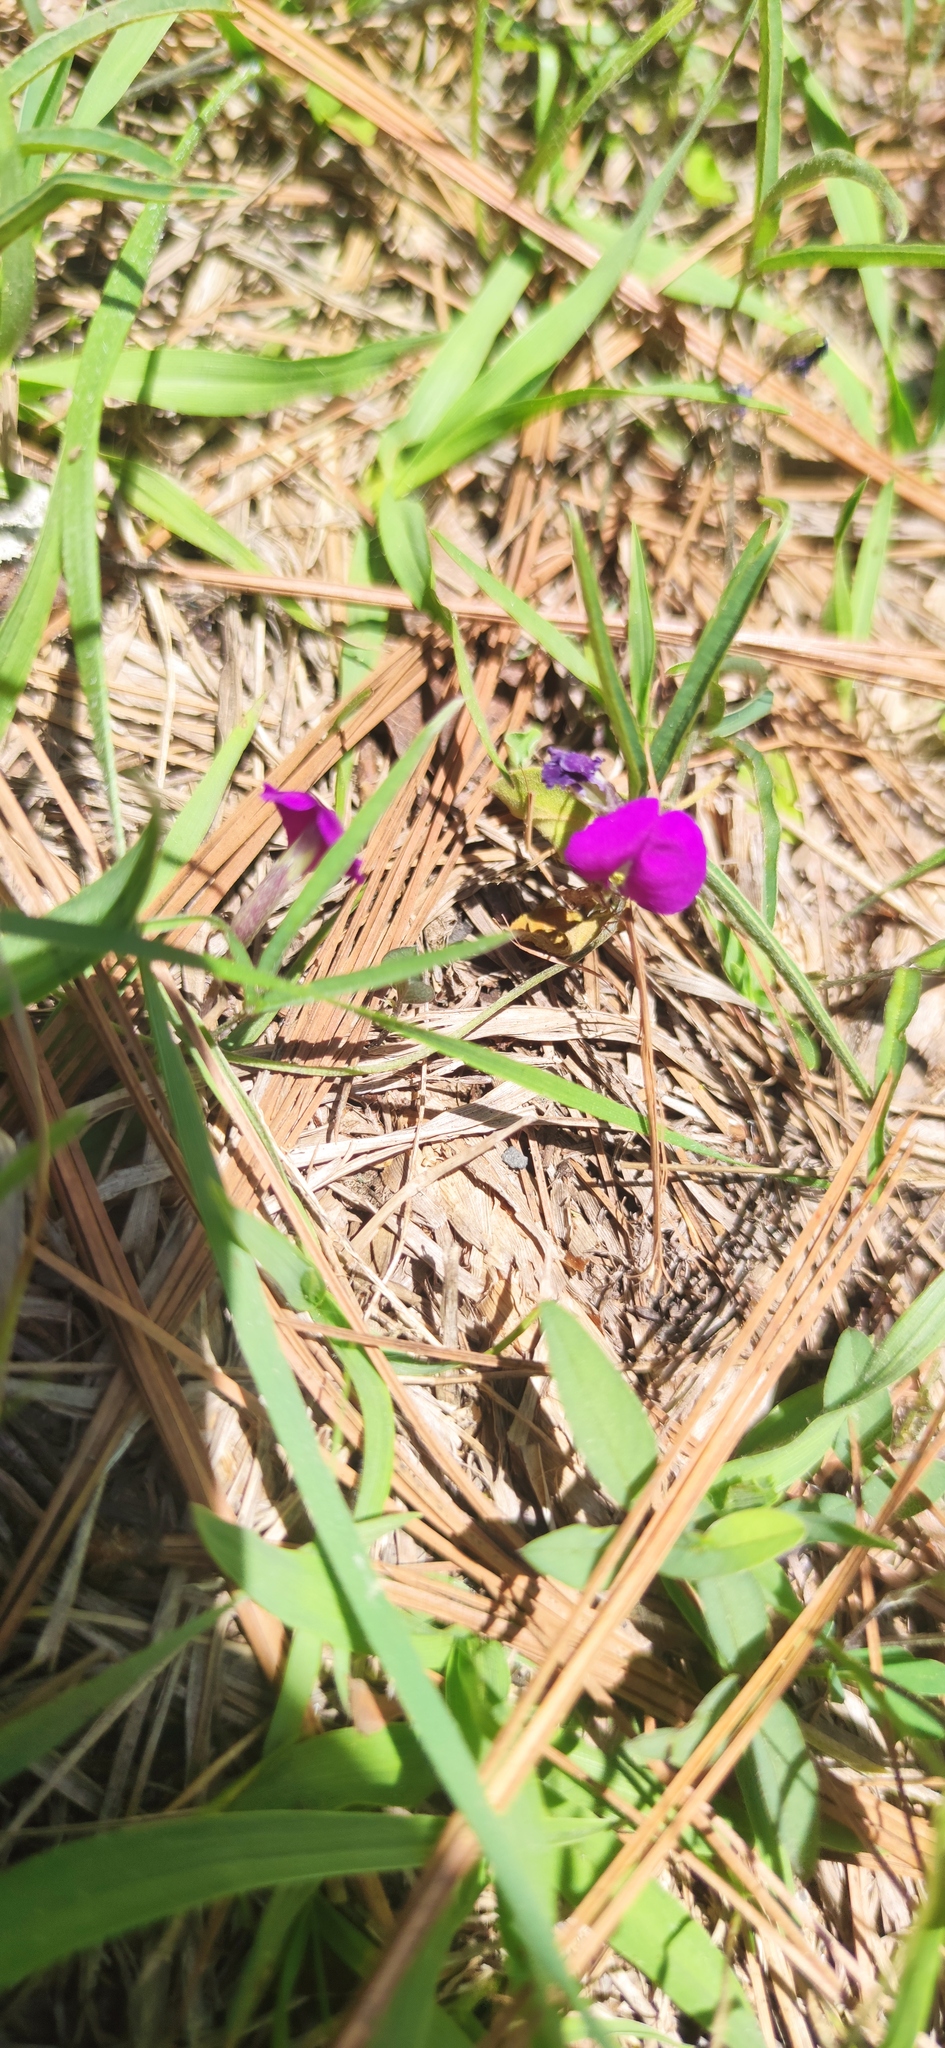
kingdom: Plantae
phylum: Tracheophyta
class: Magnoliopsida
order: Fabales
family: Fabaceae
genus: Cologania
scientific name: Cologania angustifolia
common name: Longleaf cologania
